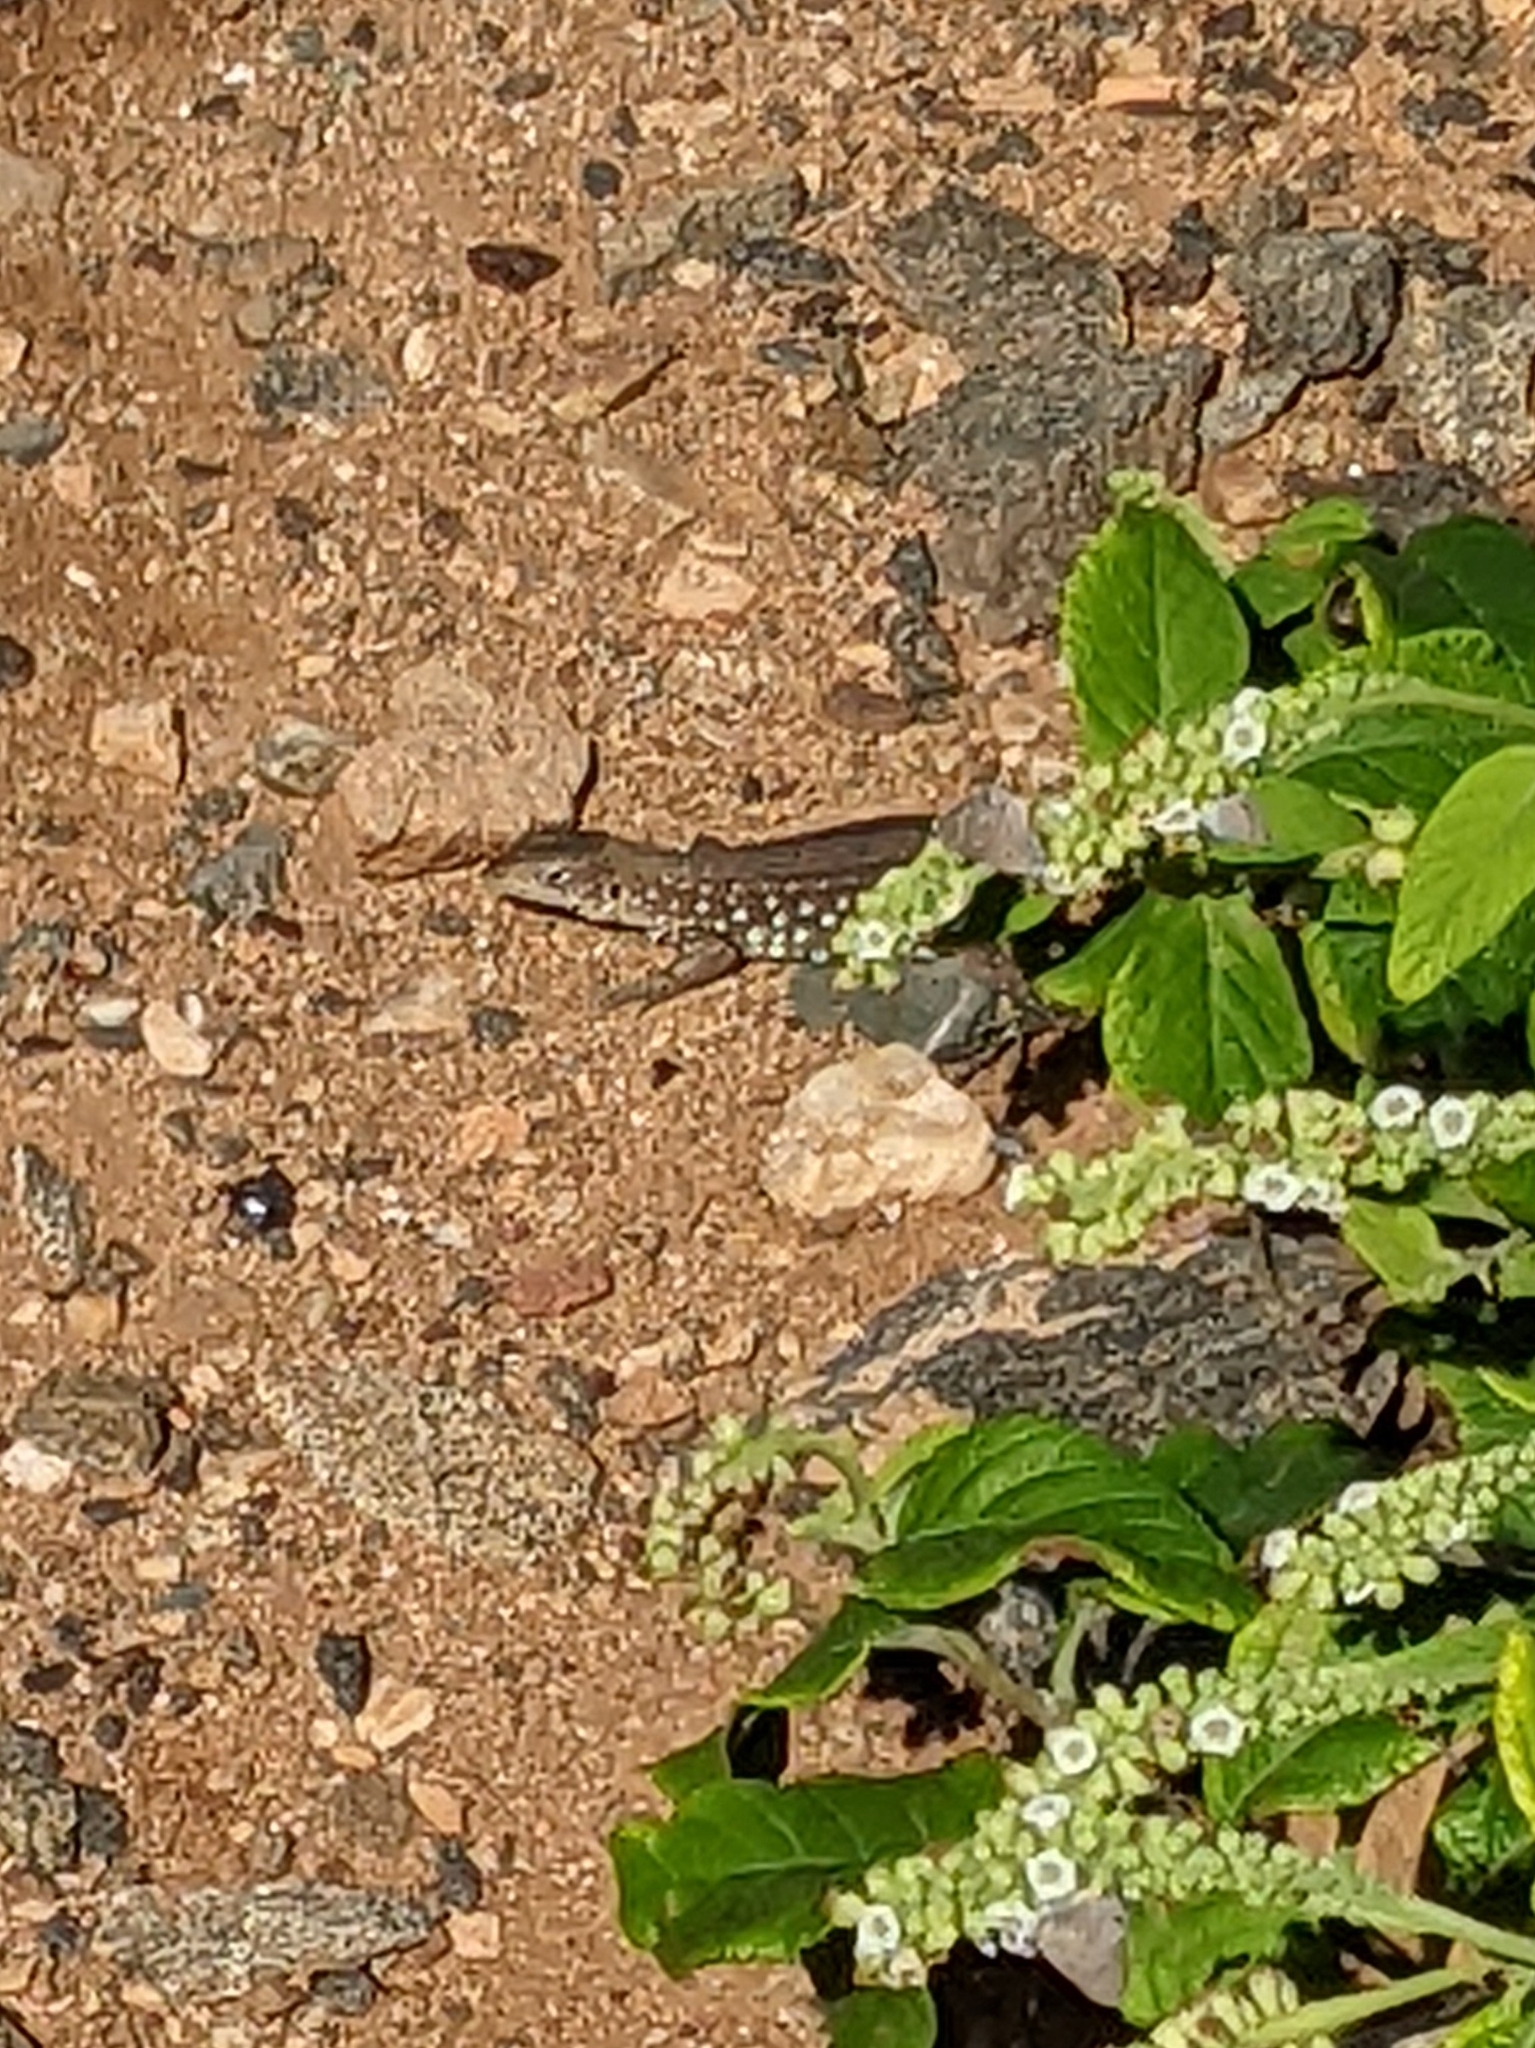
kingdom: Animalia
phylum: Chordata
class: Squamata
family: Teiidae
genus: Cnemidophorus
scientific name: Cnemidophorus arubensis
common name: Aruba whiptail
